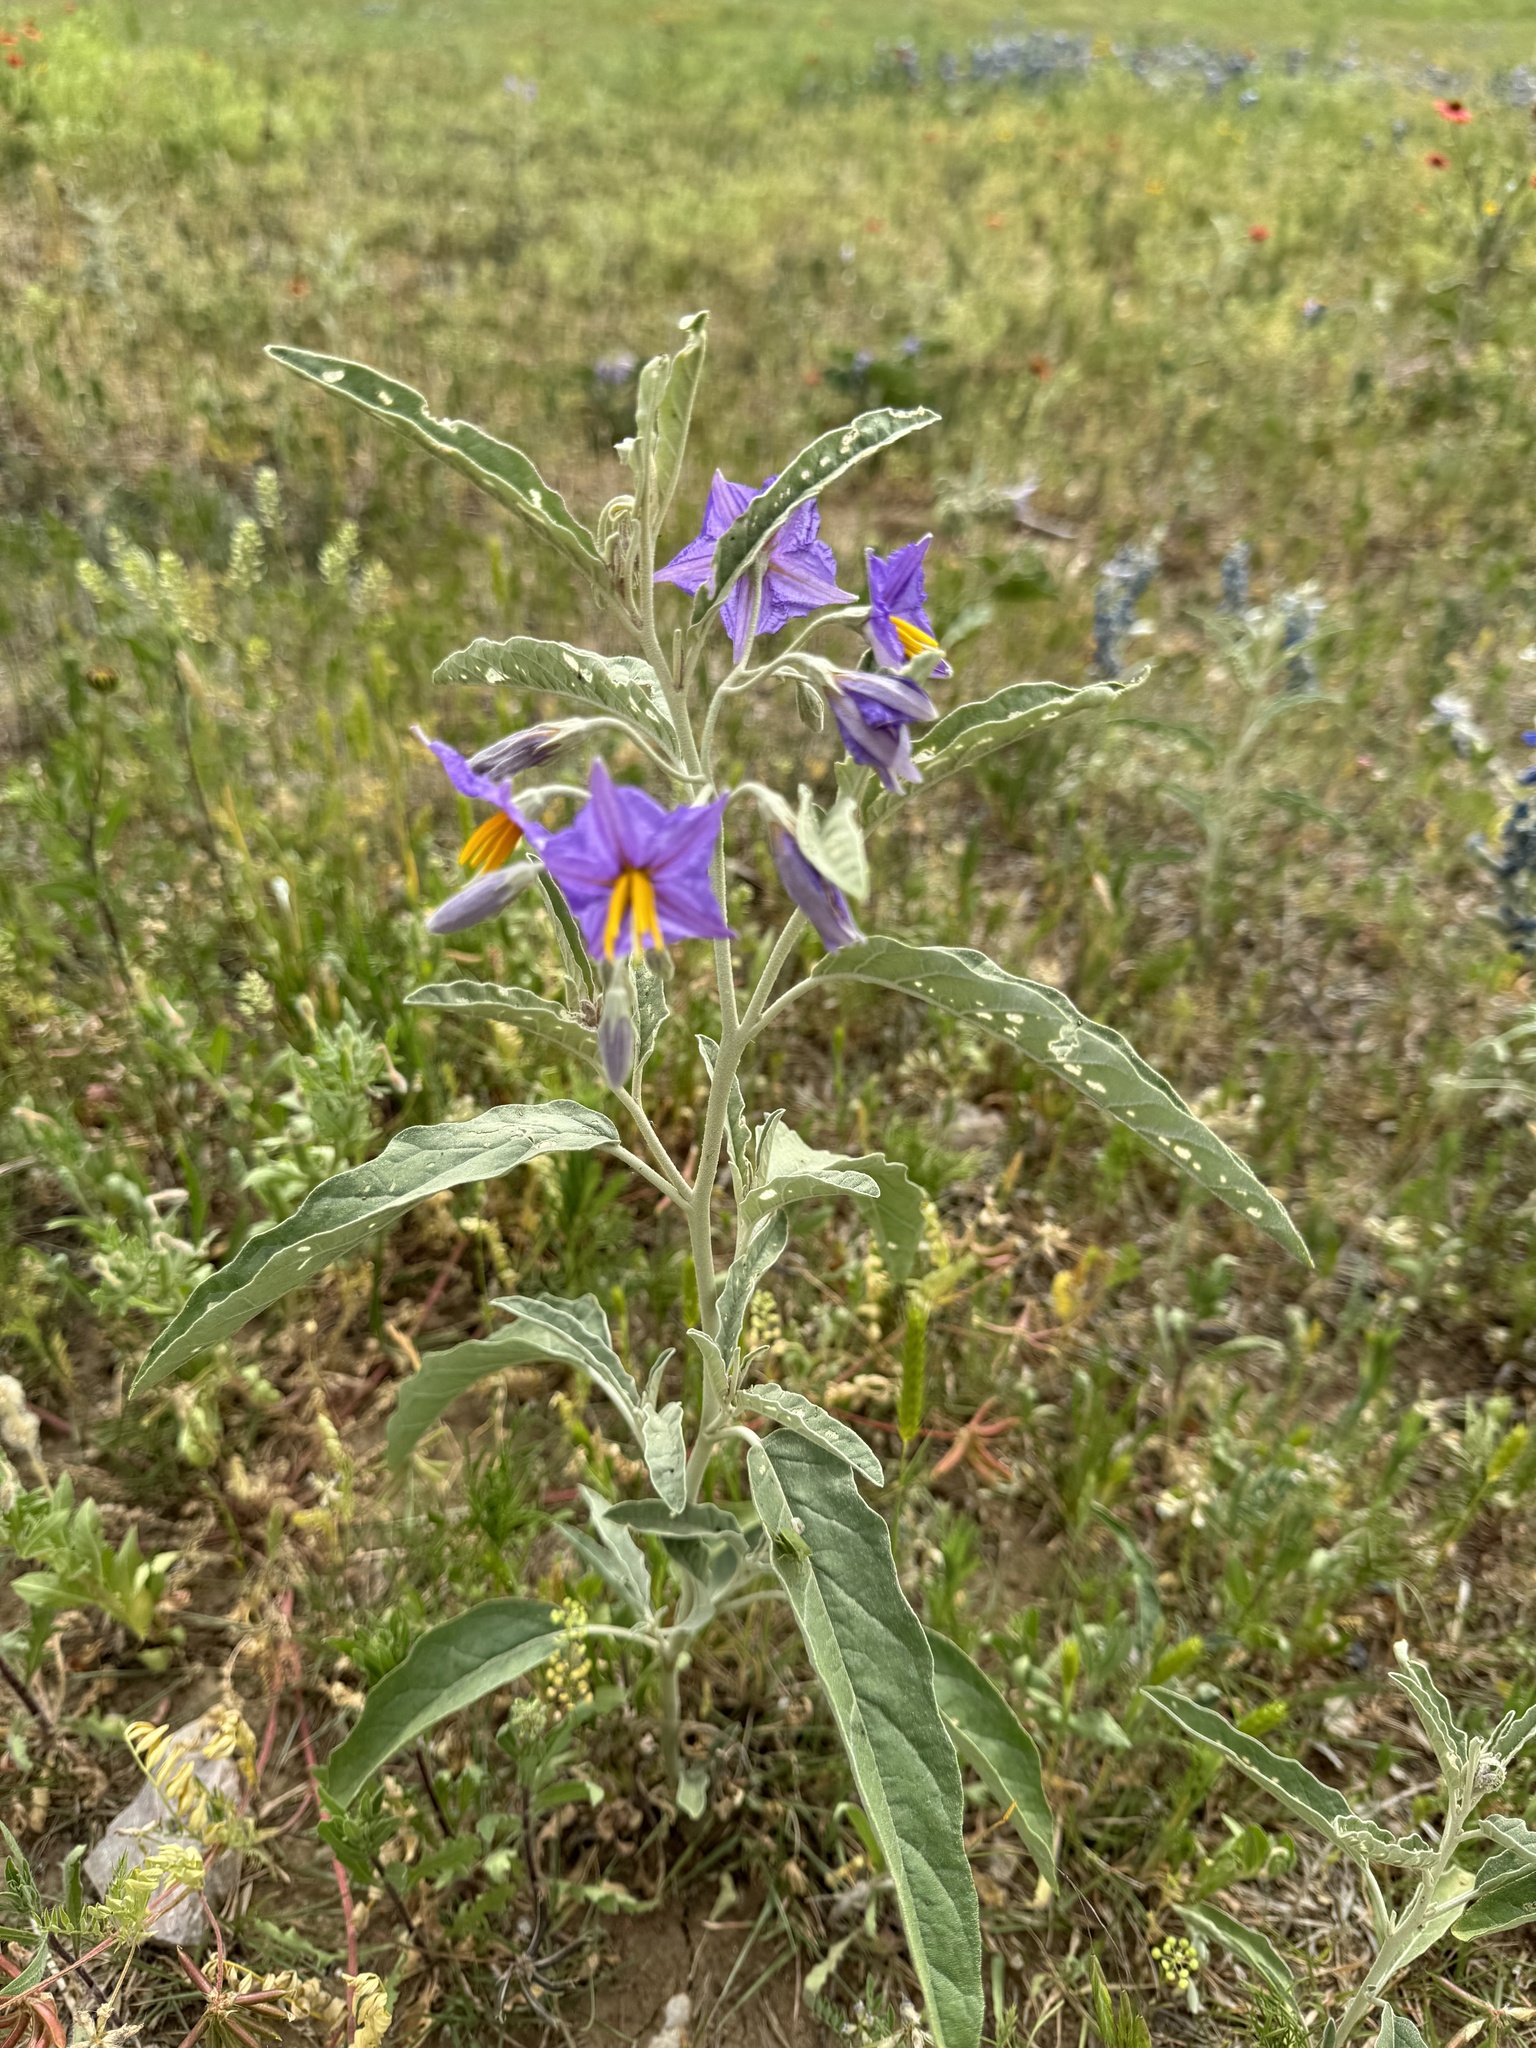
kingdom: Plantae
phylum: Tracheophyta
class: Magnoliopsida
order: Solanales
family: Solanaceae
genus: Solanum
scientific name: Solanum elaeagnifolium
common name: Silverleaf nightshade
